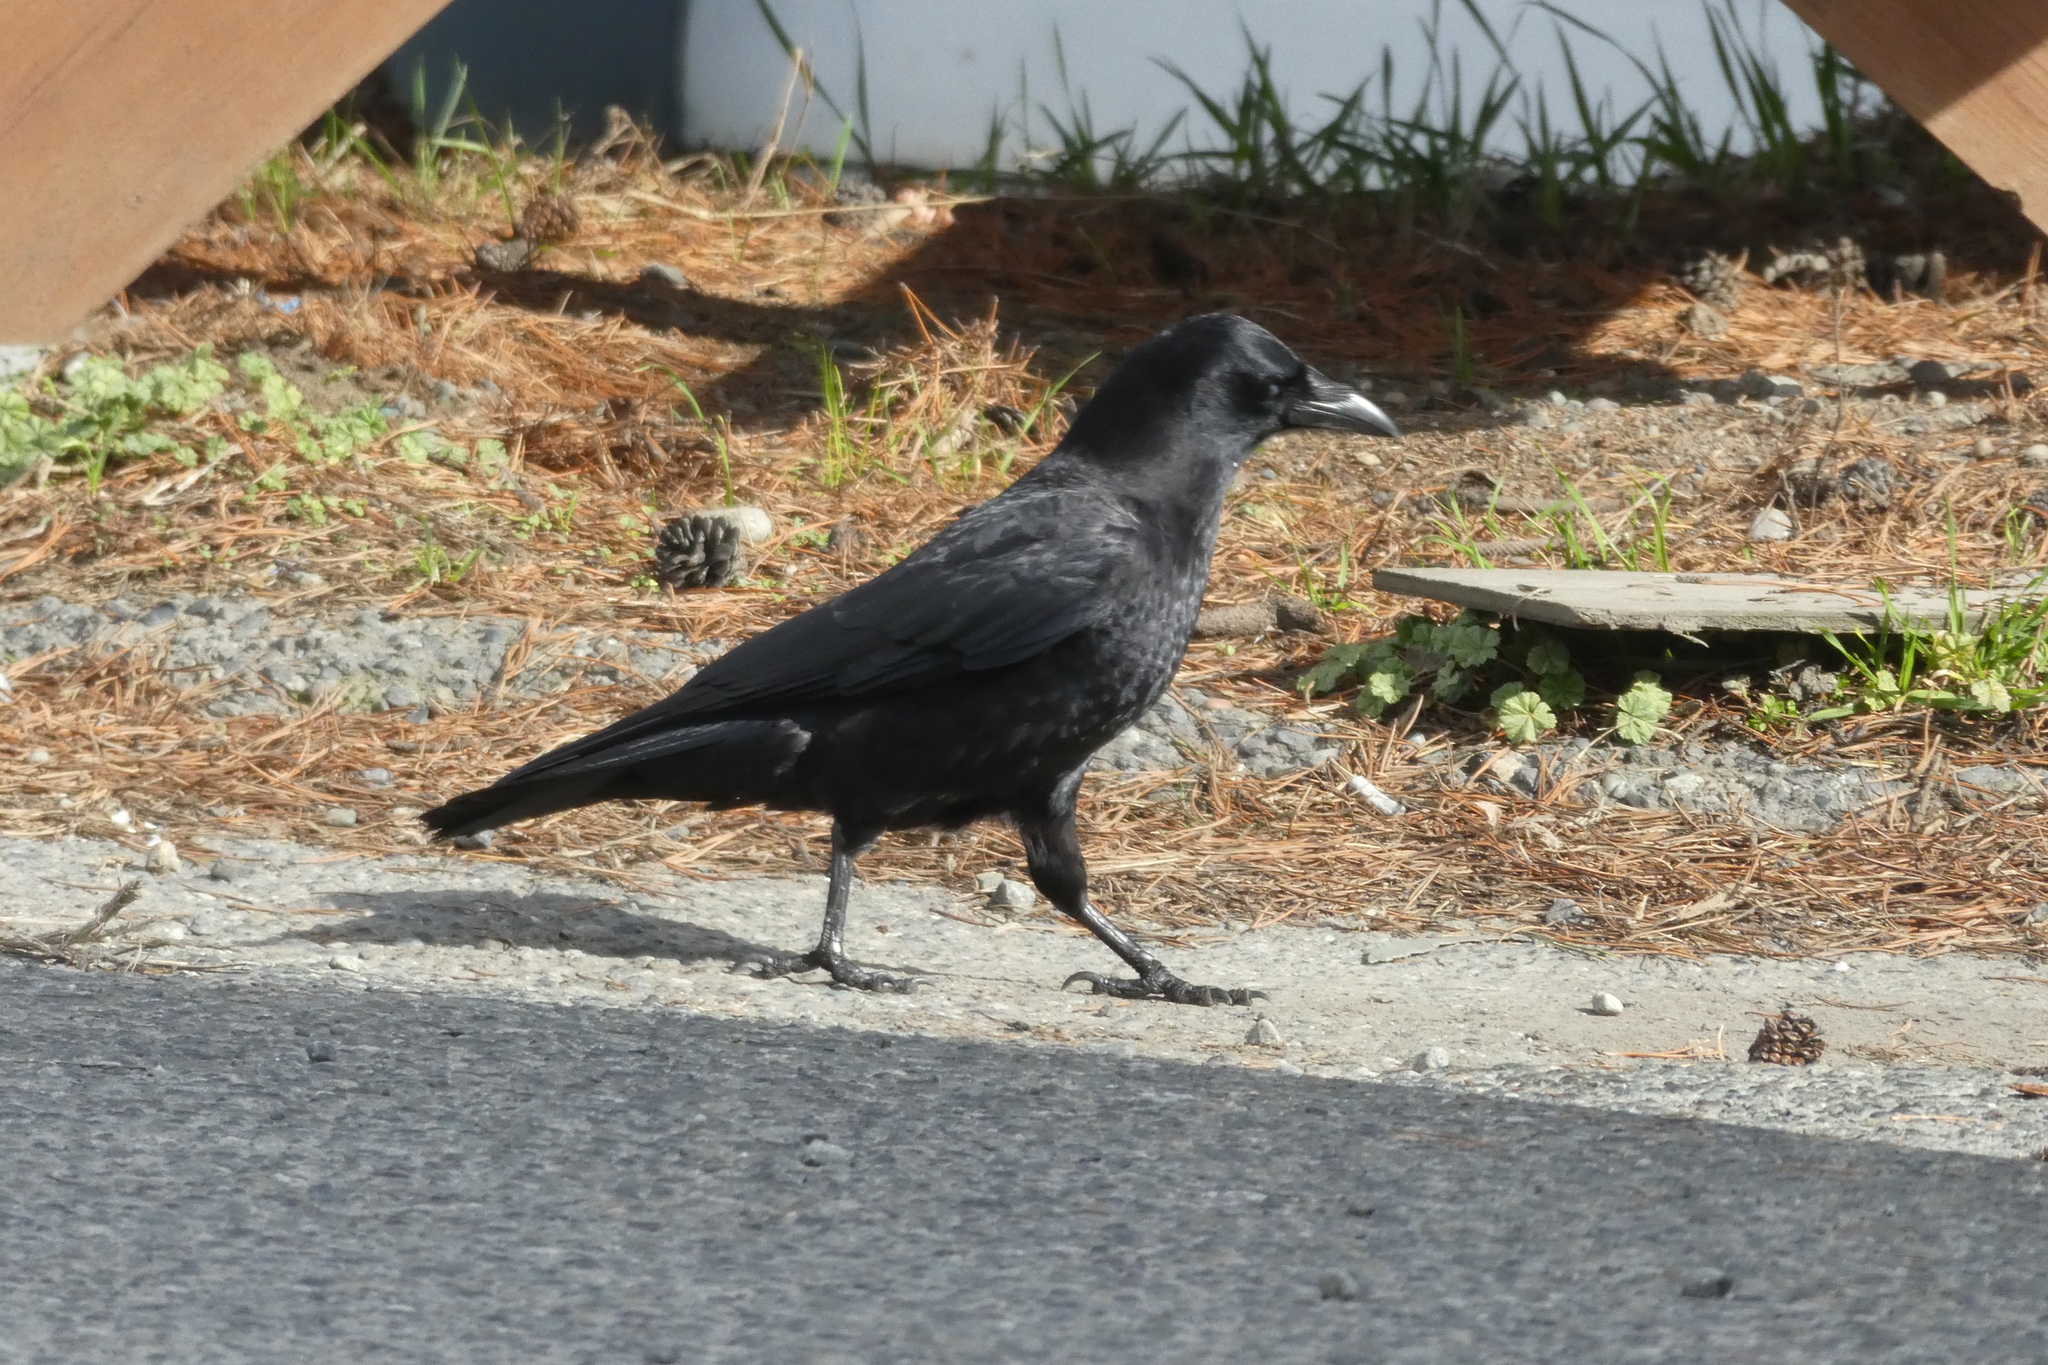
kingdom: Animalia
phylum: Chordata
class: Aves
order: Passeriformes
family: Corvidae
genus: Corvus
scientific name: Corvus brachyrhynchos
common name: American crow
